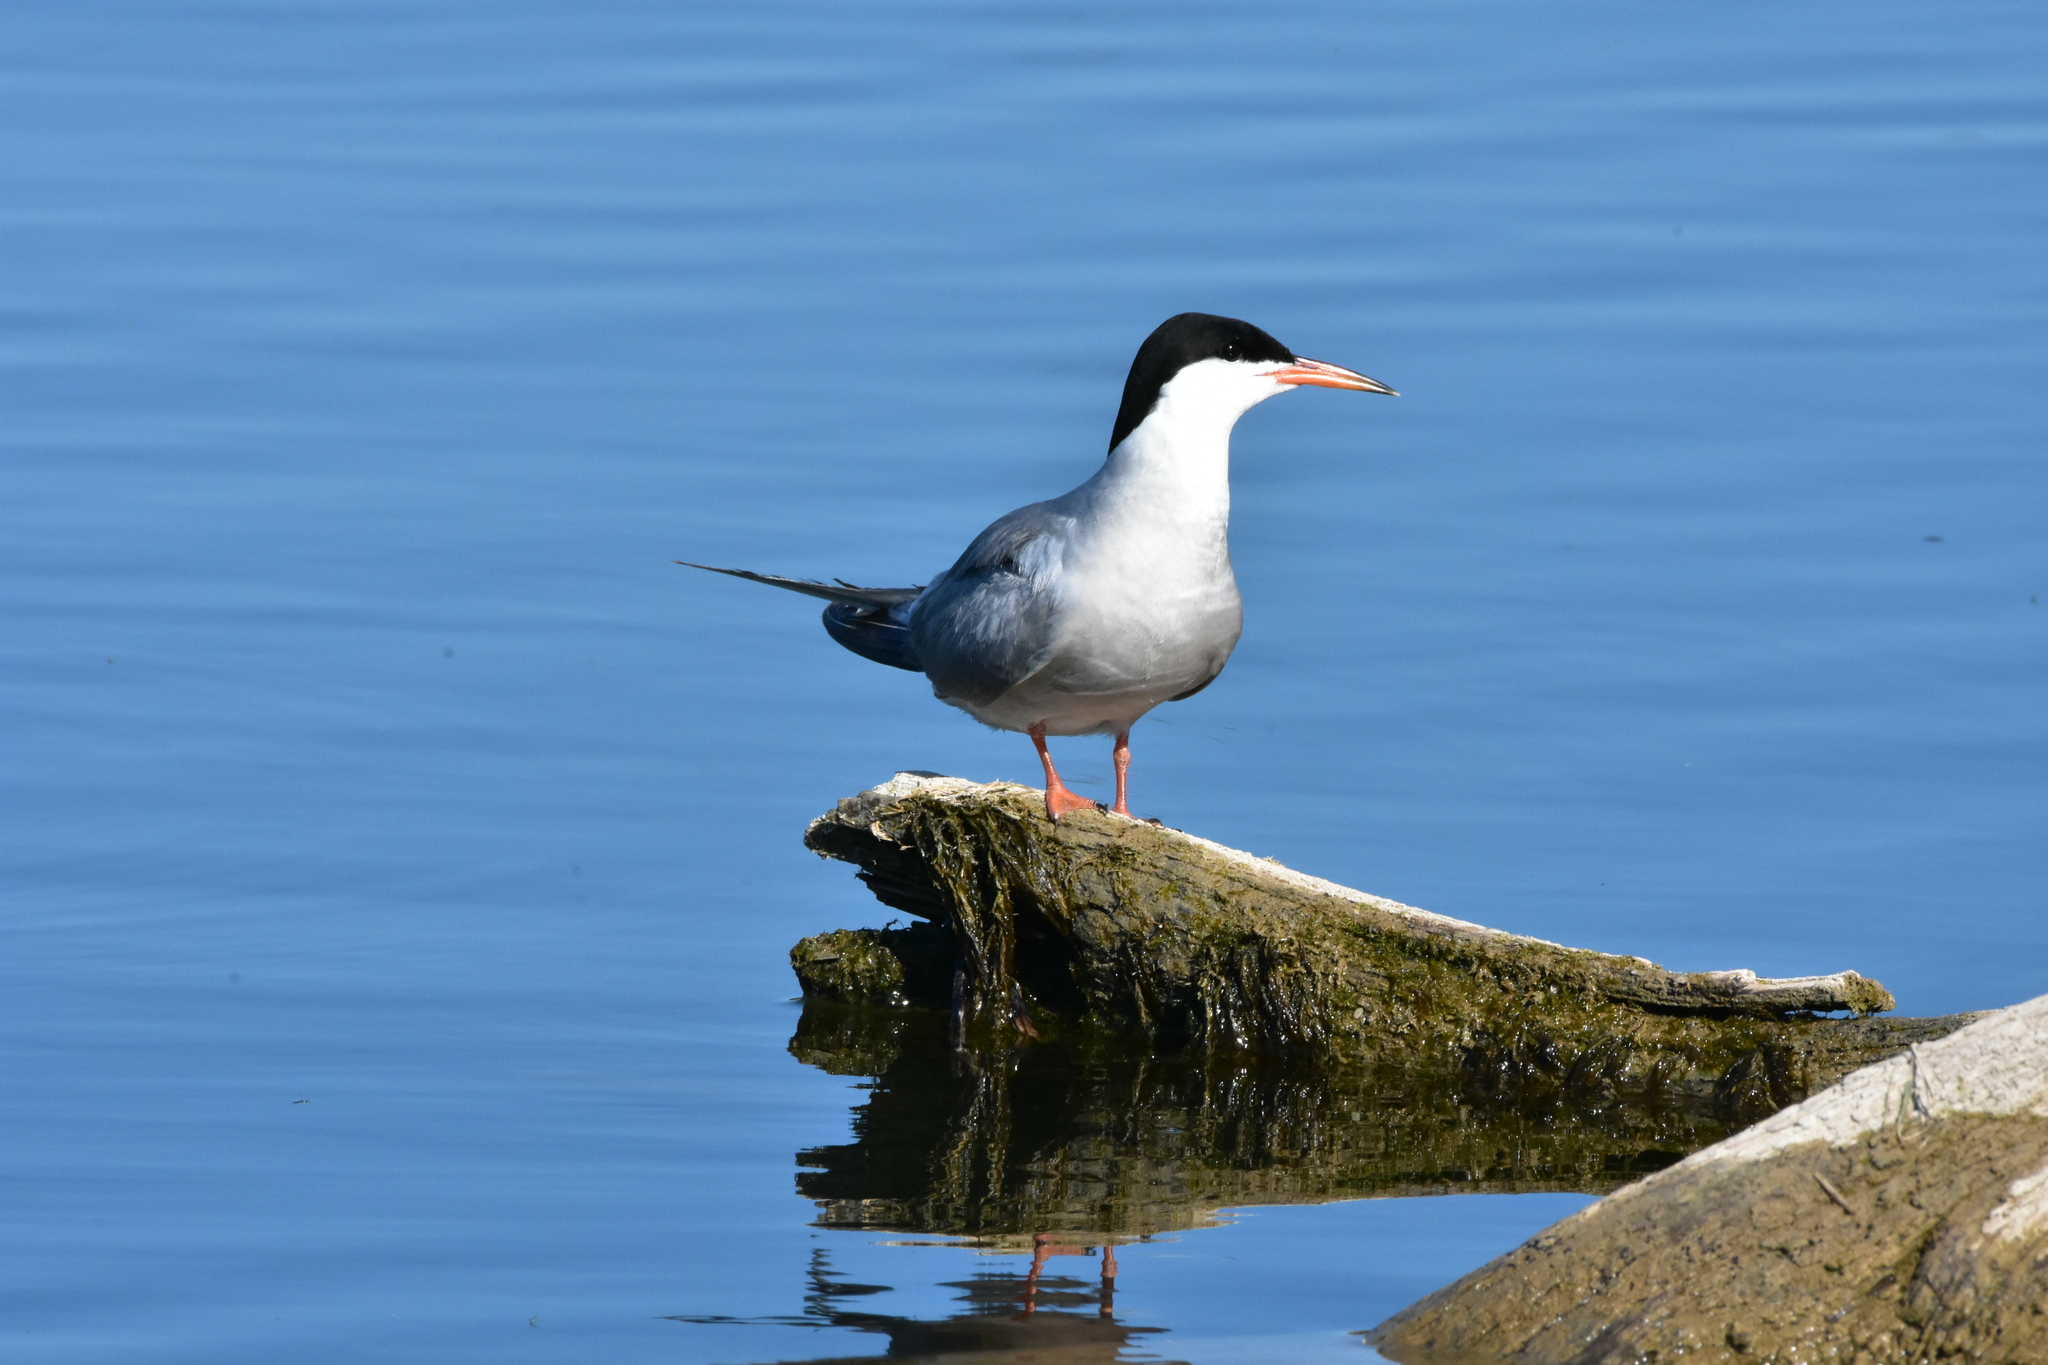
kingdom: Animalia
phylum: Chordata
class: Aves
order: Charadriiformes
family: Laridae
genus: Sterna
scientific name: Sterna hirundo
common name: Common tern
